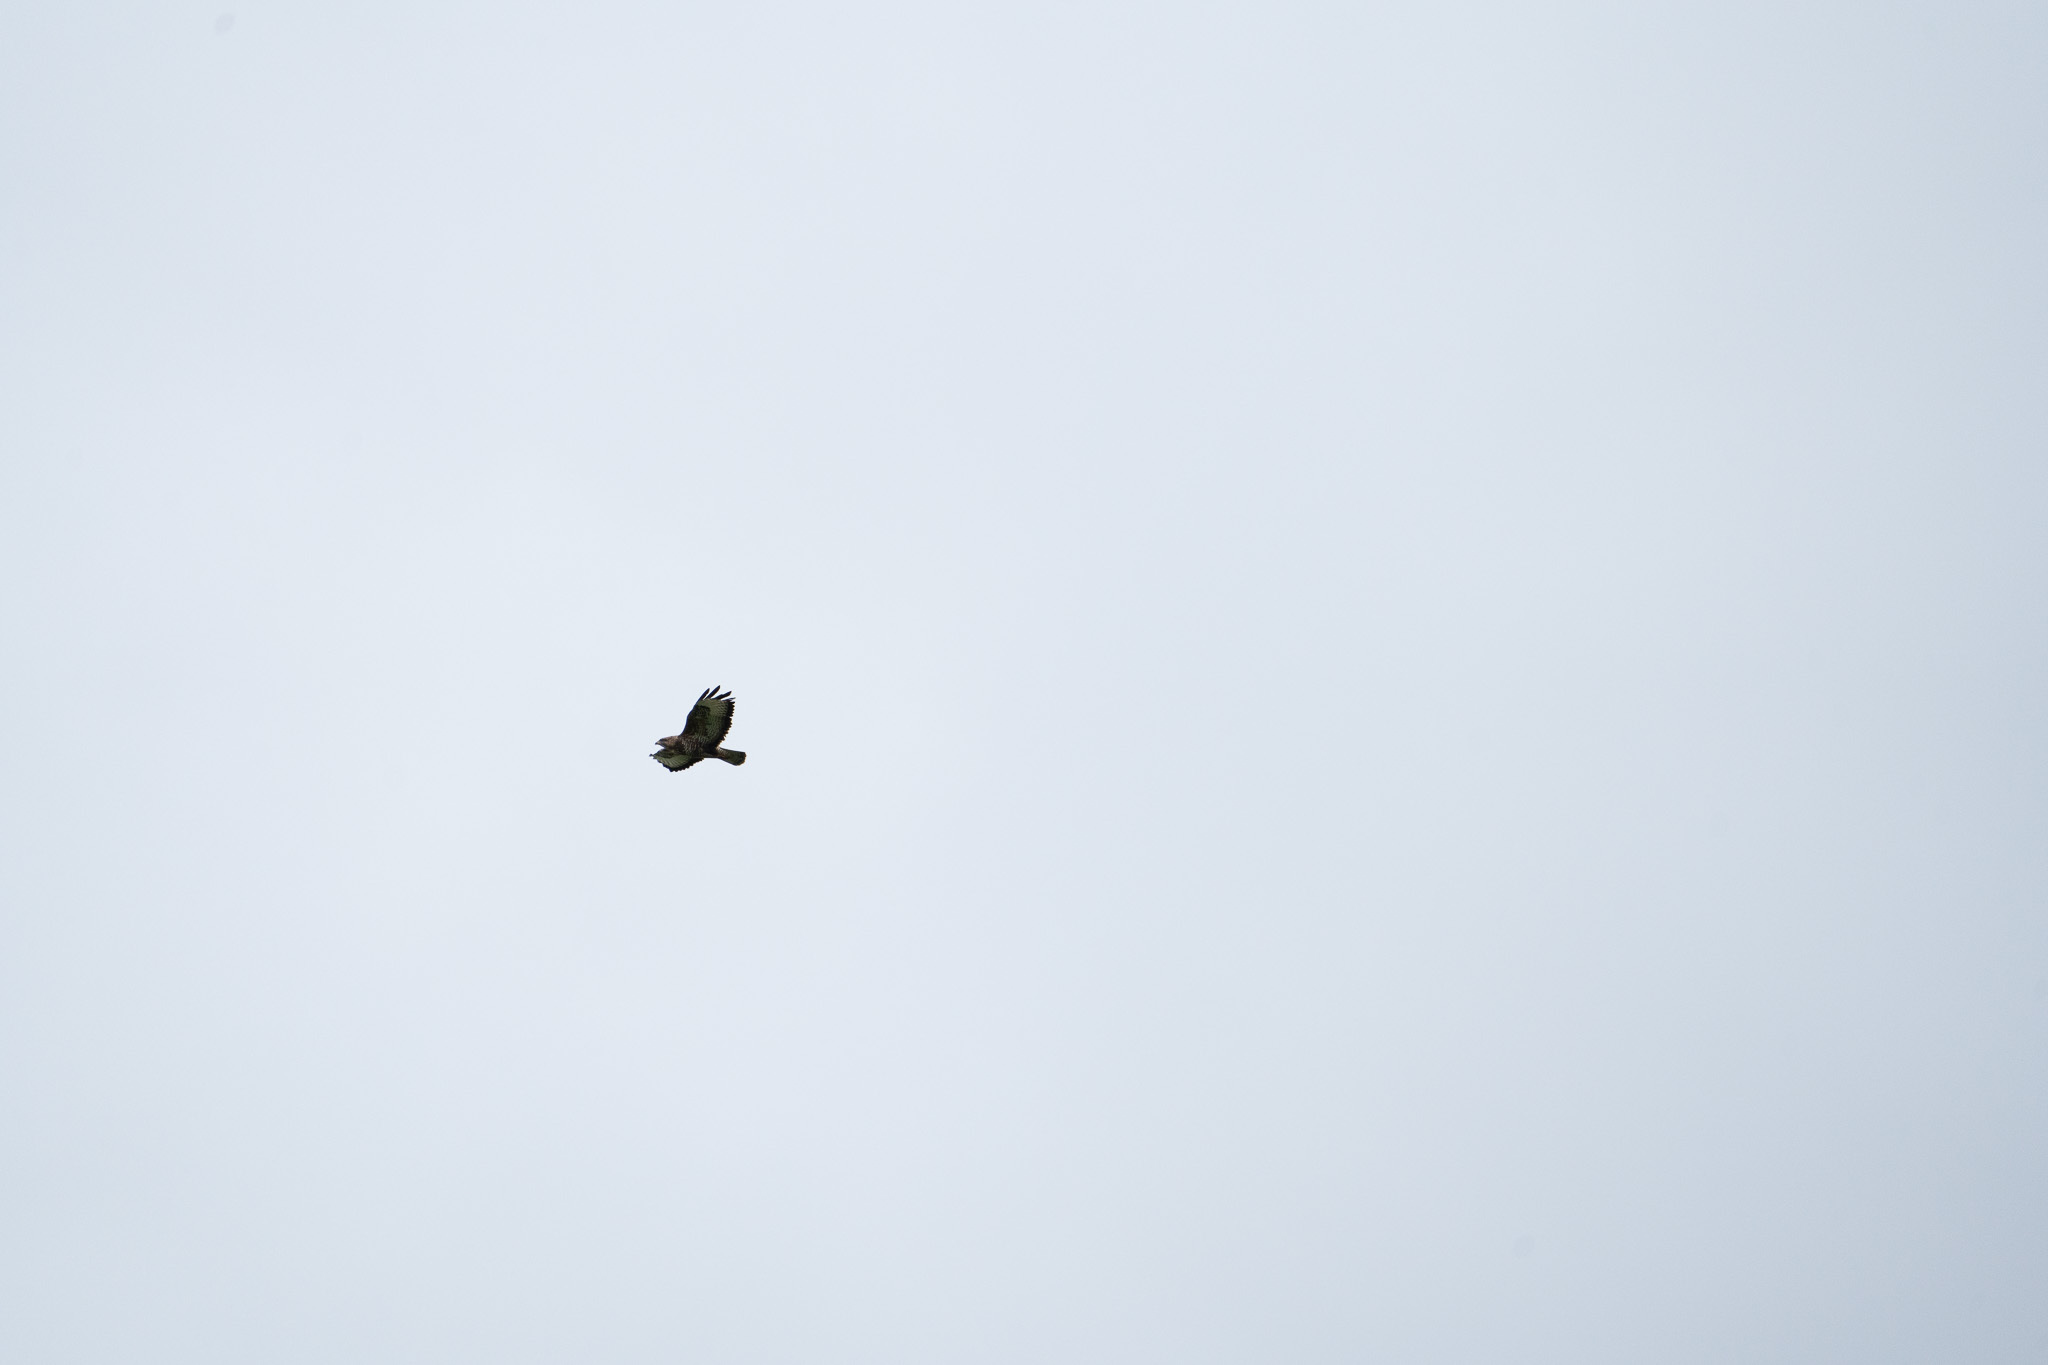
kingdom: Animalia
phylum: Chordata
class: Aves
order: Accipitriformes
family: Accipitridae
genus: Buteo
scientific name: Buteo buteo
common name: Common buzzard
